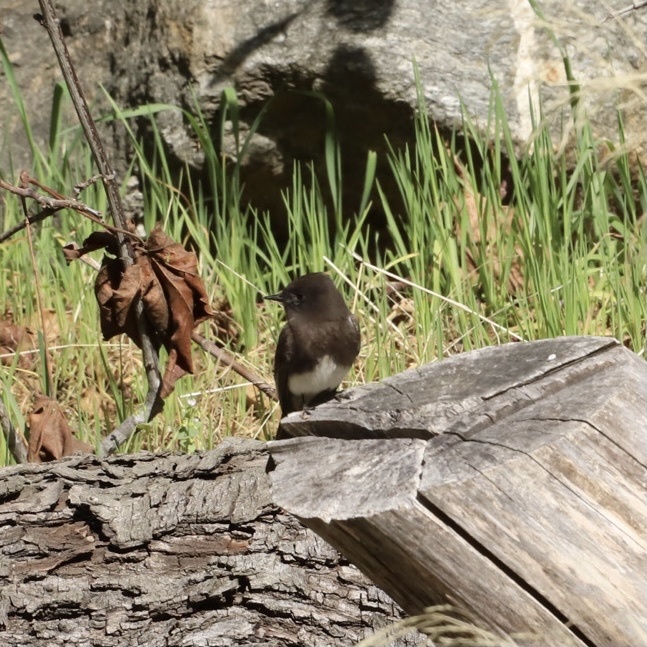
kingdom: Animalia
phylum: Chordata
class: Aves
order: Passeriformes
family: Tyrannidae
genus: Sayornis
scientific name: Sayornis nigricans
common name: Black phoebe
